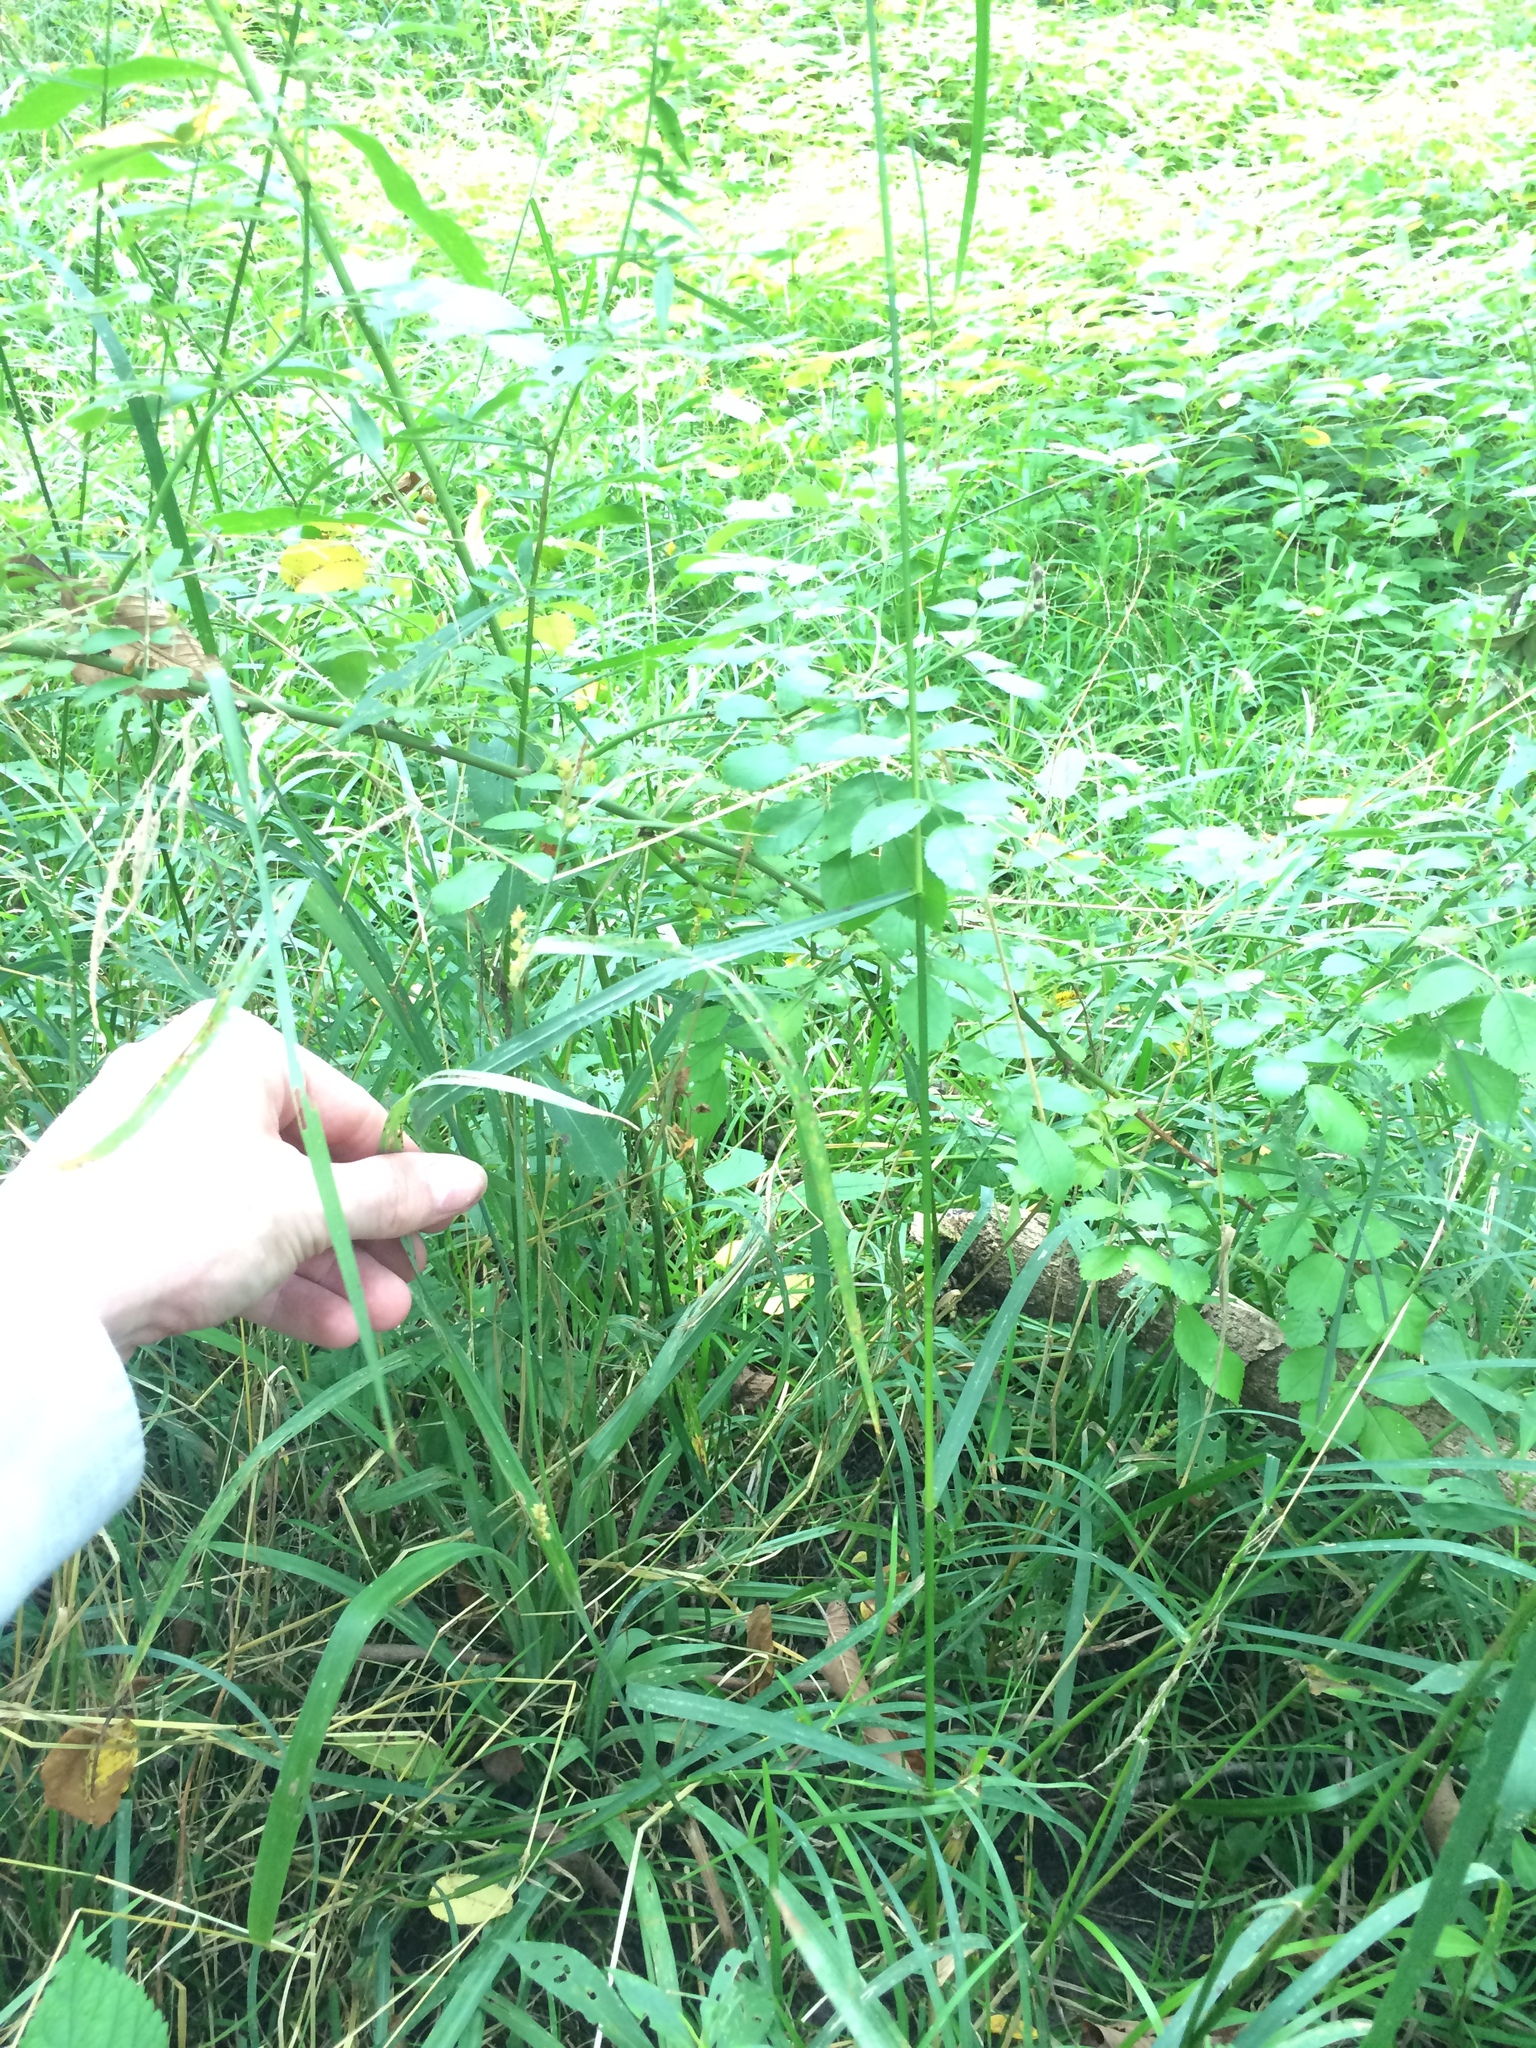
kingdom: Plantae
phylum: Tracheophyta
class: Liliopsida
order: Poales
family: Cyperaceae
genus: Carex
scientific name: Carex granularis
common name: Granular sedge
